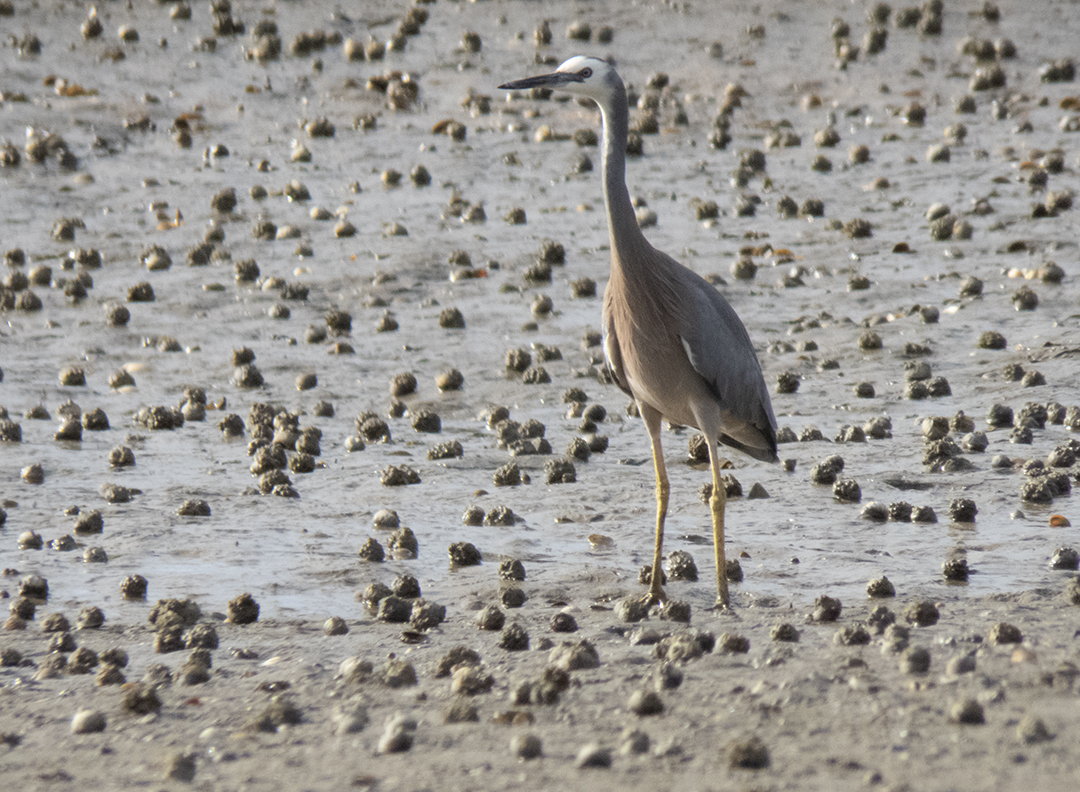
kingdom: Animalia
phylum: Chordata
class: Aves
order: Pelecaniformes
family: Ardeidae
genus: Egretta
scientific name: Egretta novaehollandiae
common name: White-faced heron
